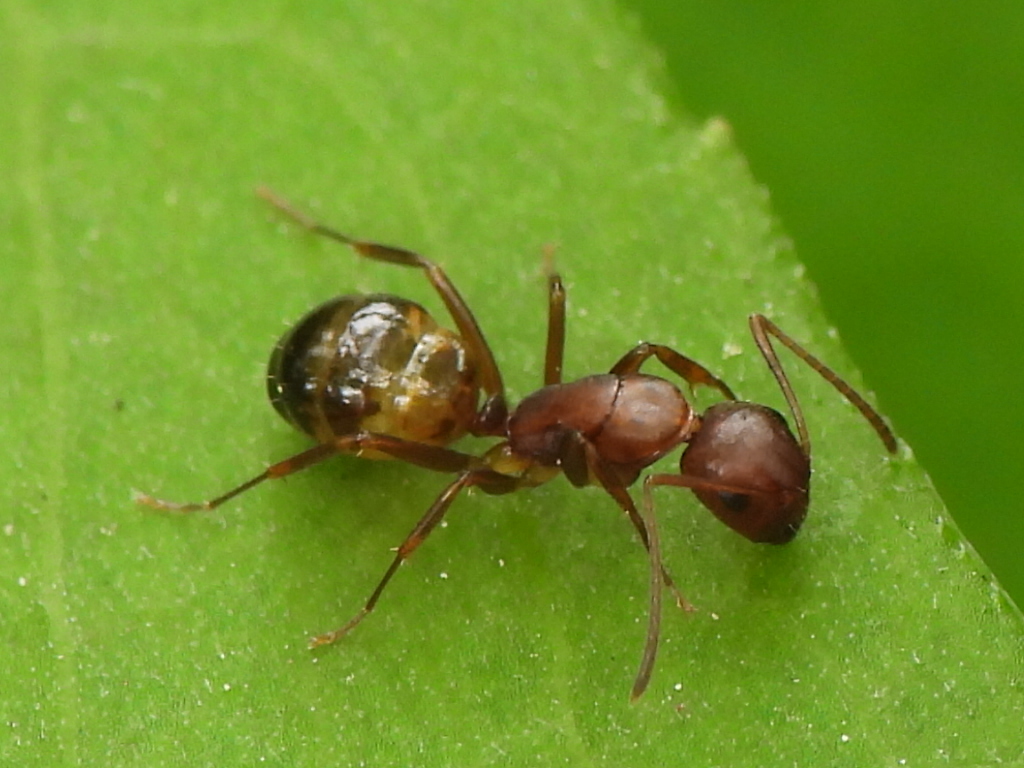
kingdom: Animalia
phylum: Arthropoda
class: Insecta
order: Hymenoptera
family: Formicidae
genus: Camponotus
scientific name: Camponotus subbarbatus
